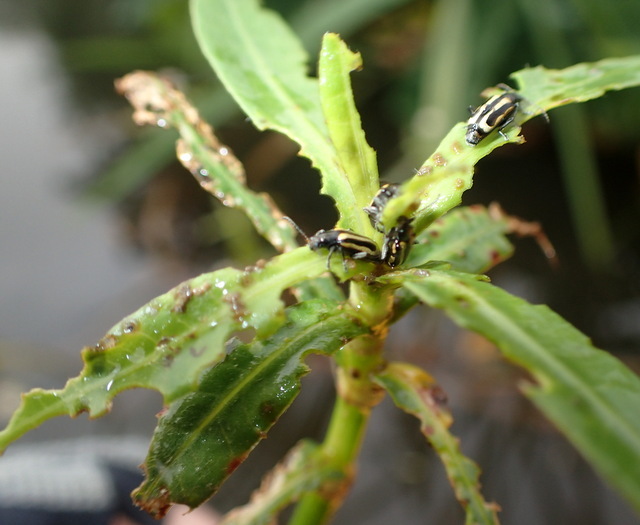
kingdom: Animalia
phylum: Arthropoda
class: Insecta
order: Coleoptera
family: Chrysomelidae
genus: Agasicles
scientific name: Agasicles hygrophila
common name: Alligatorweed flea beetle
